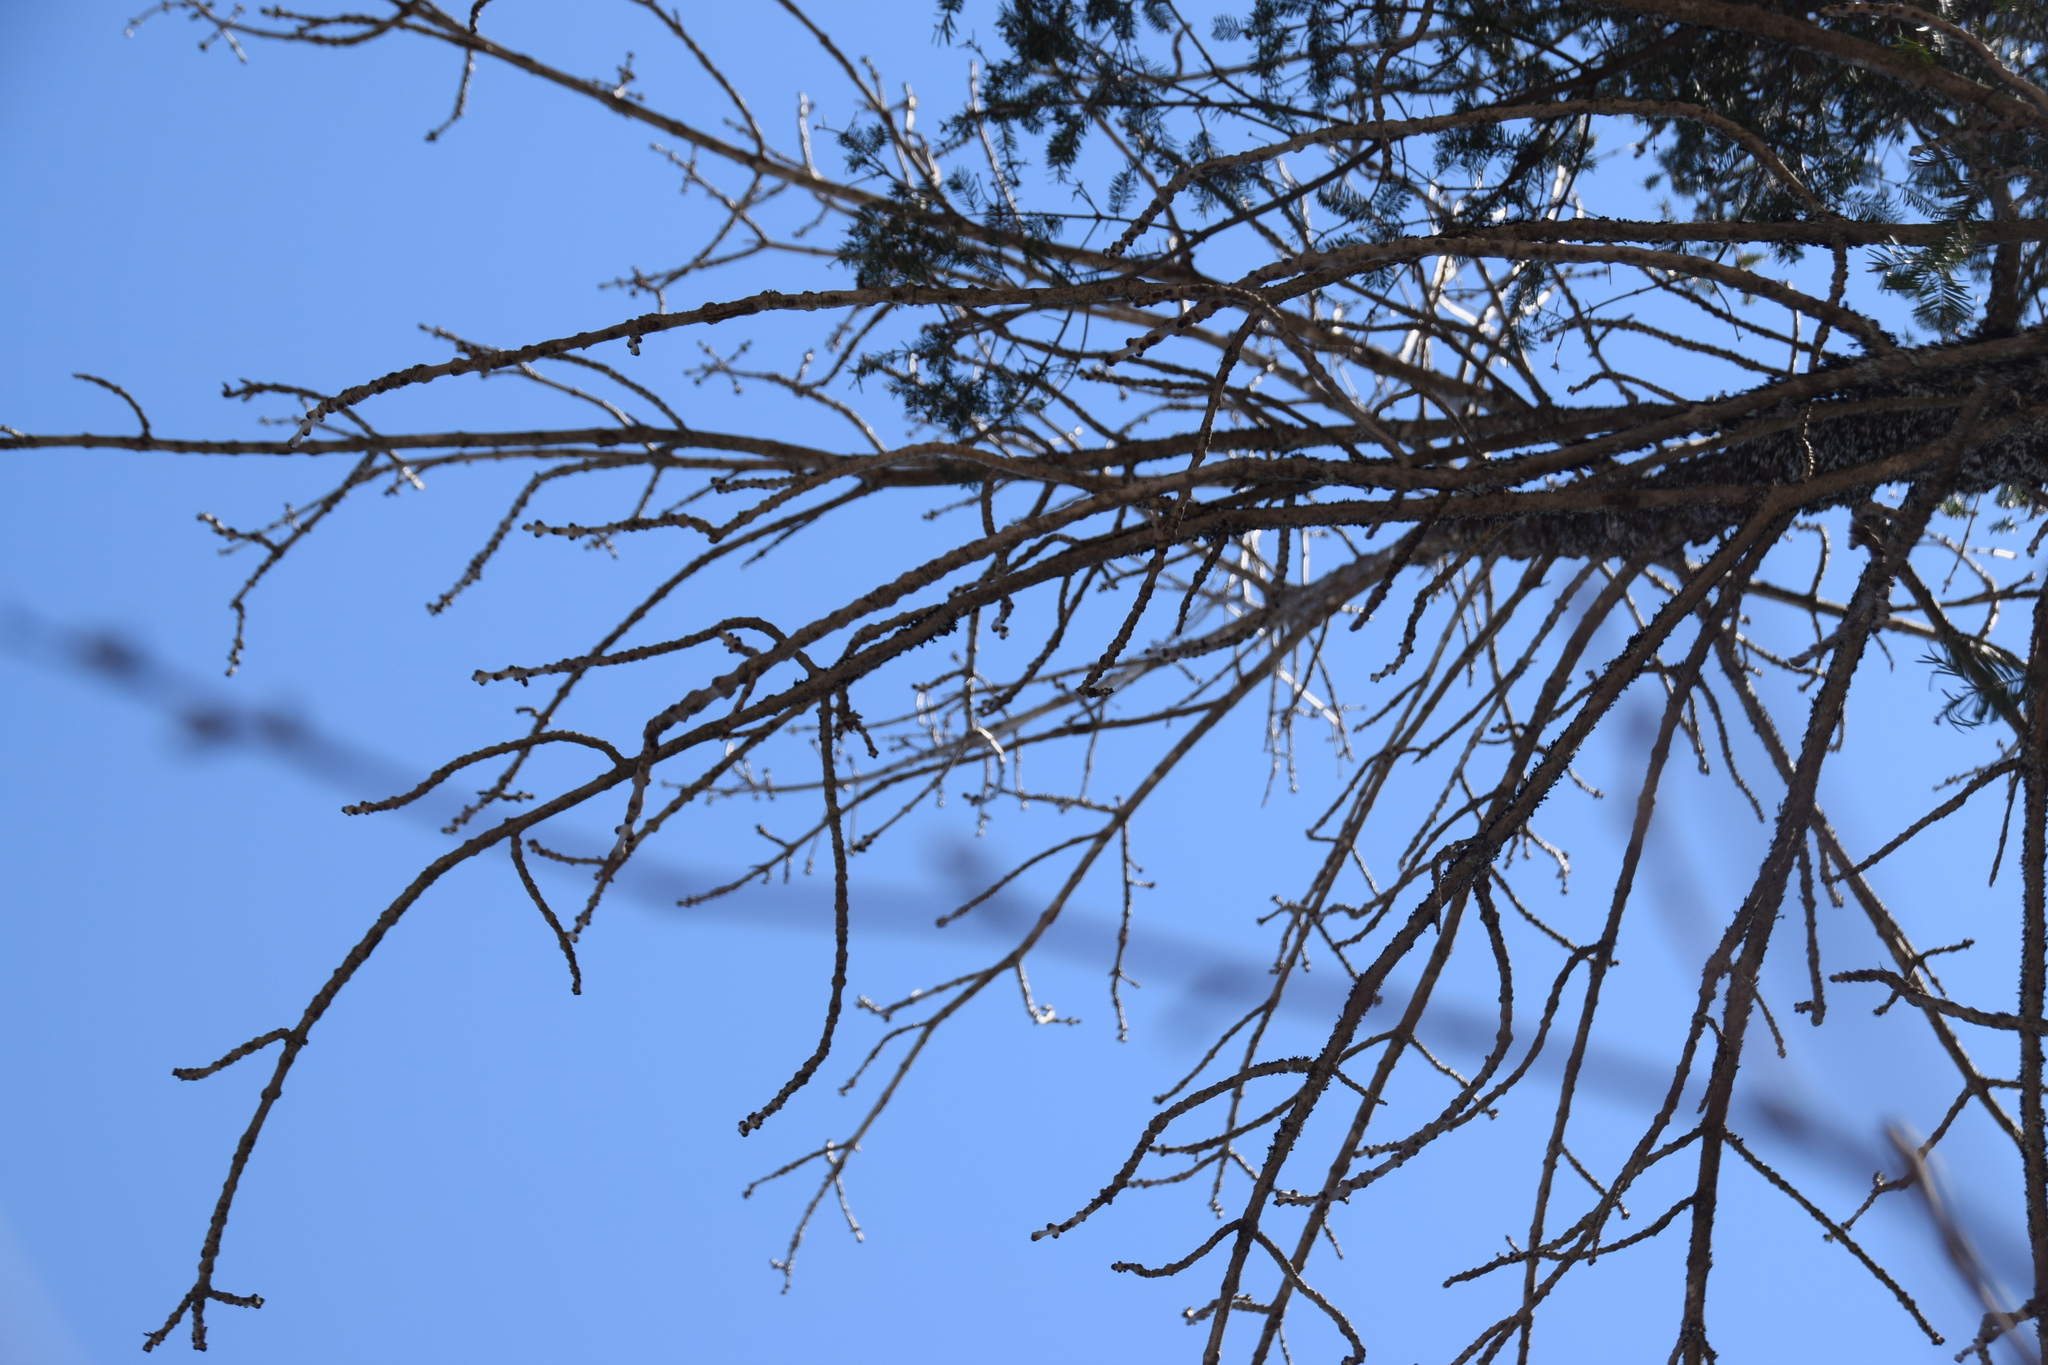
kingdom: Plantae
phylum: Tracheophyta
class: Magnoliopsida
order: Lamiales
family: Oleaceae
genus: Fraxinus
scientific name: Fraxinus nigra
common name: Black ash
